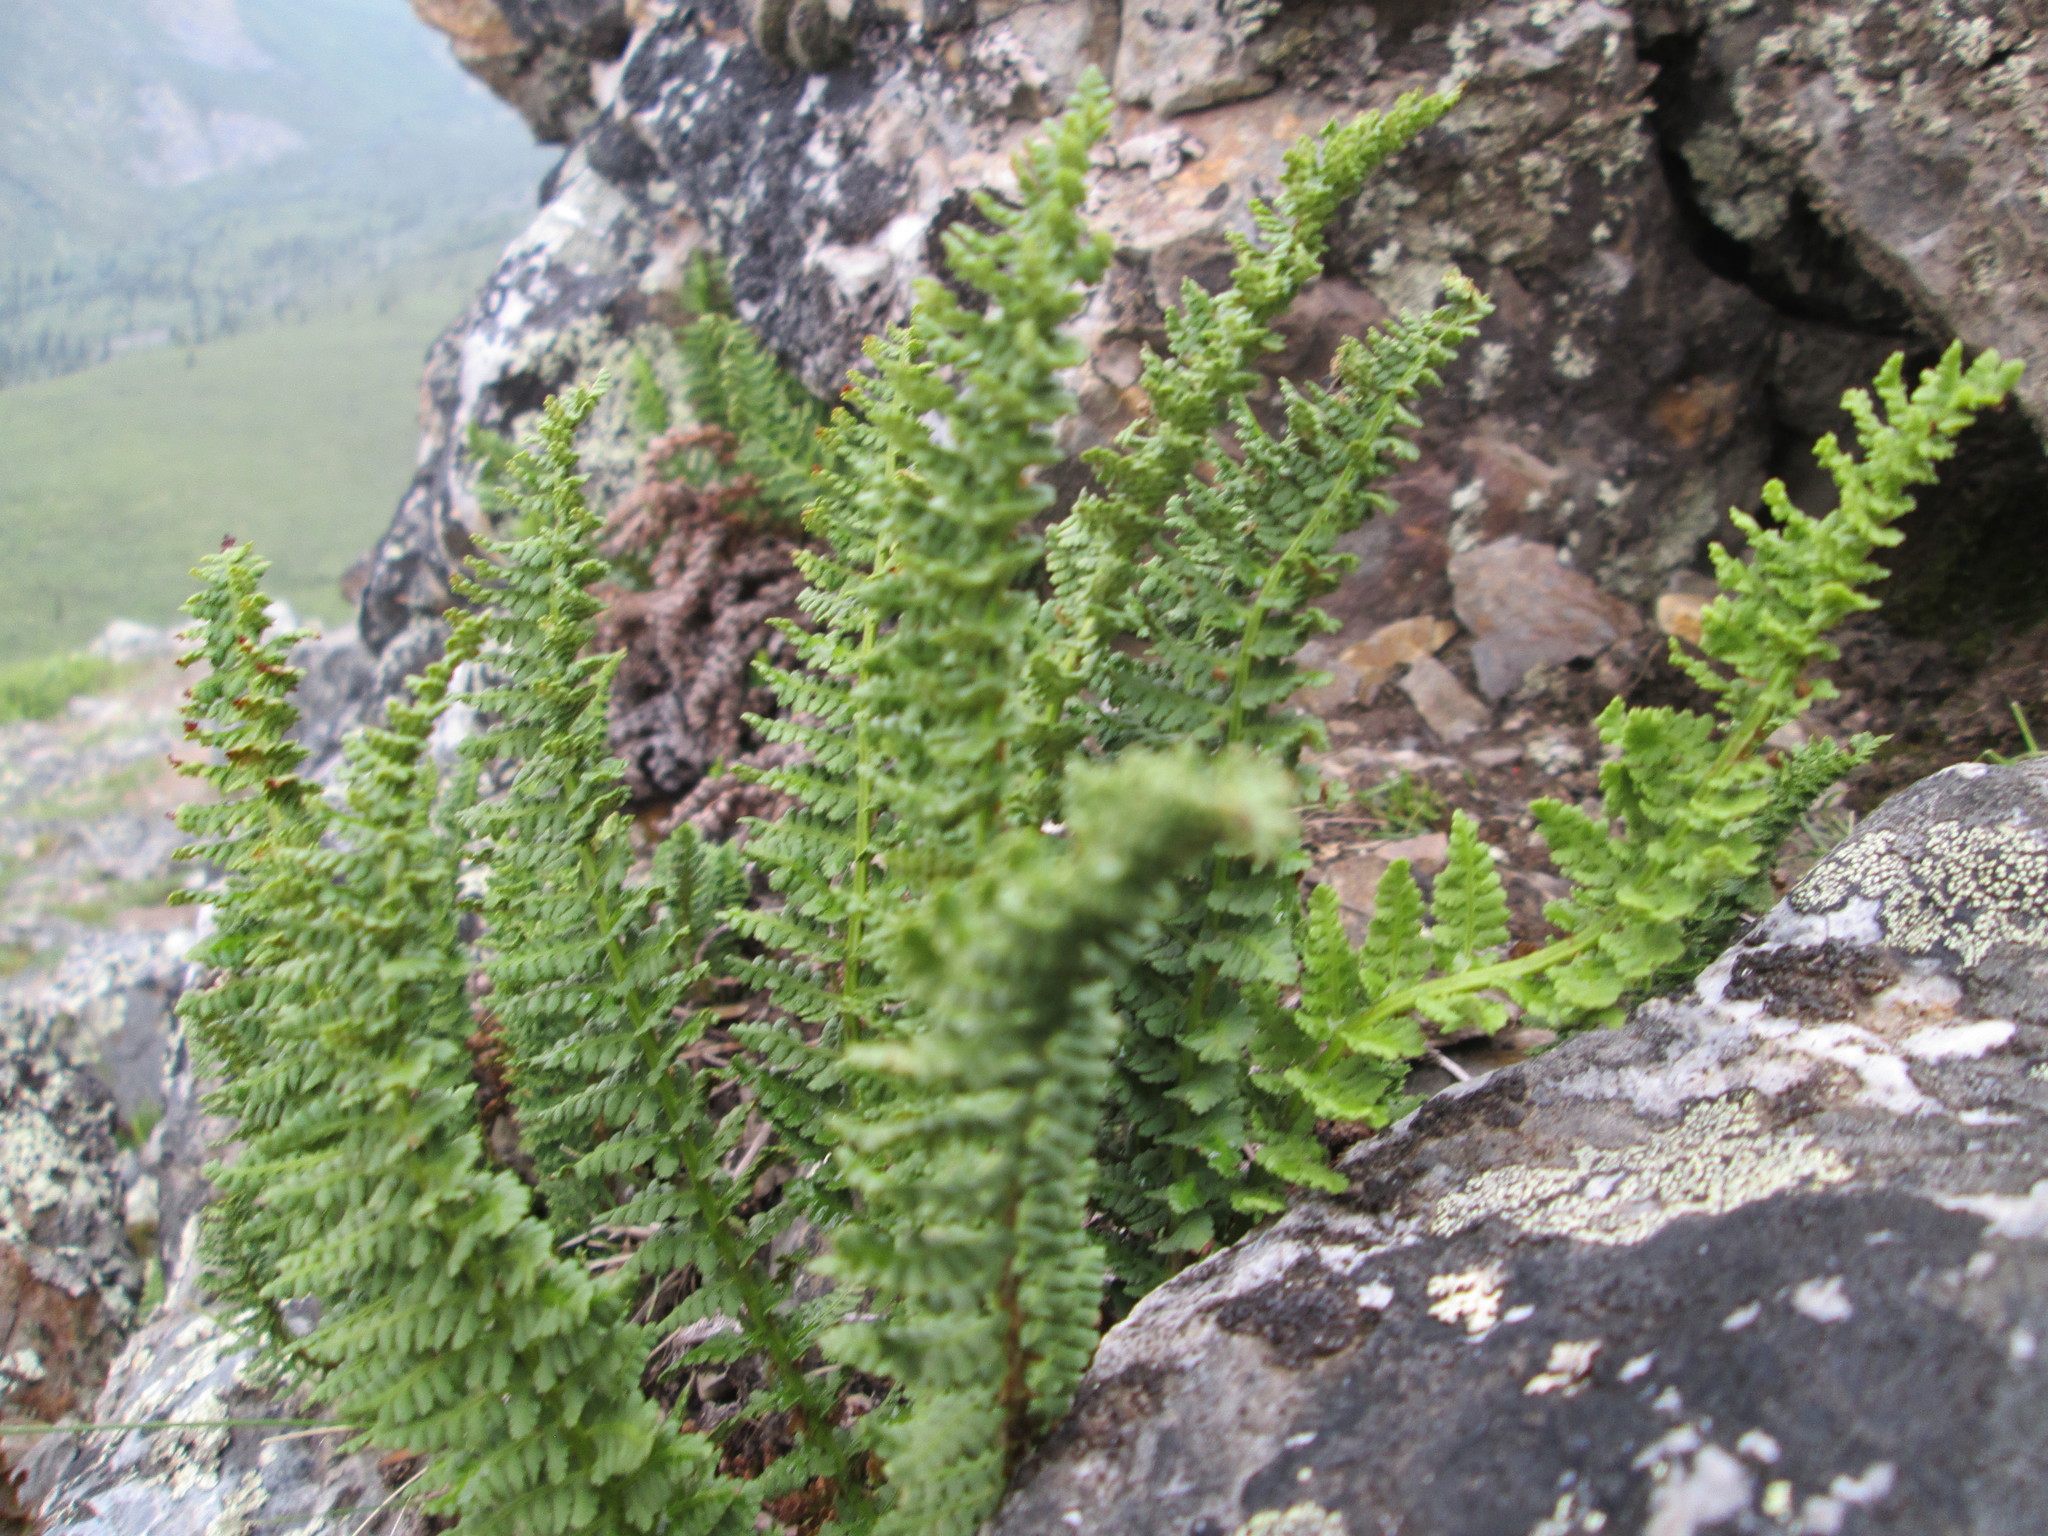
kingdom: Plantae
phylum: Tracheophyta
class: Polypodiopsida
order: Polypodiales
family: Dryopteridaceae
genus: Dryopteris
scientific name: Dryopteris fragrans
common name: Fragrant wood fern
